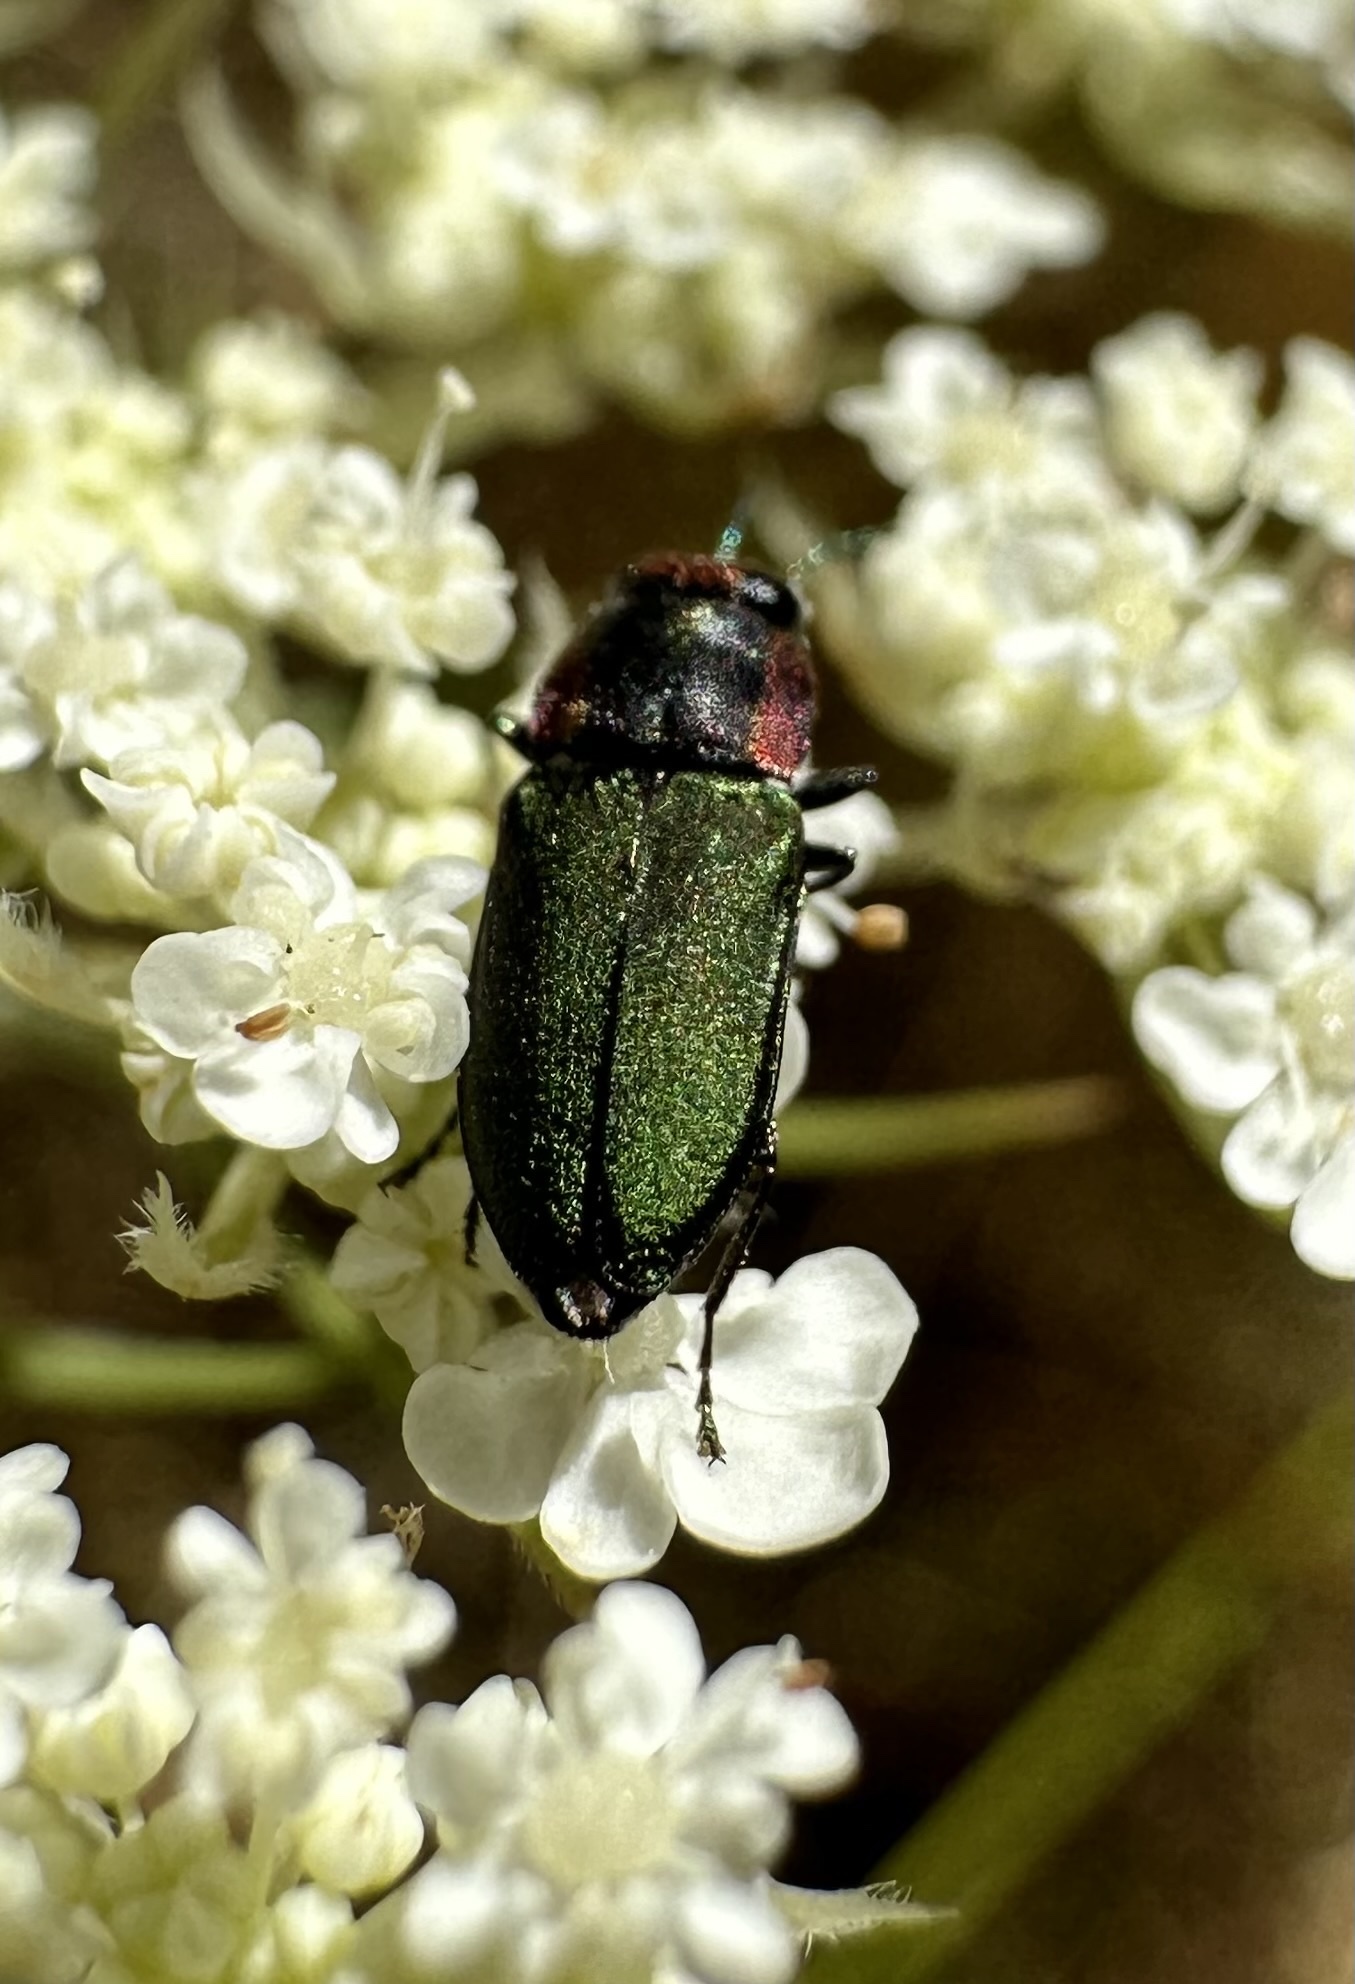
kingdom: Animalia
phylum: Arthropoda
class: Insecta
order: Coleoptera
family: Buprestidae
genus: Bilyaxia
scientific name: Bilyaxia cupriceps
